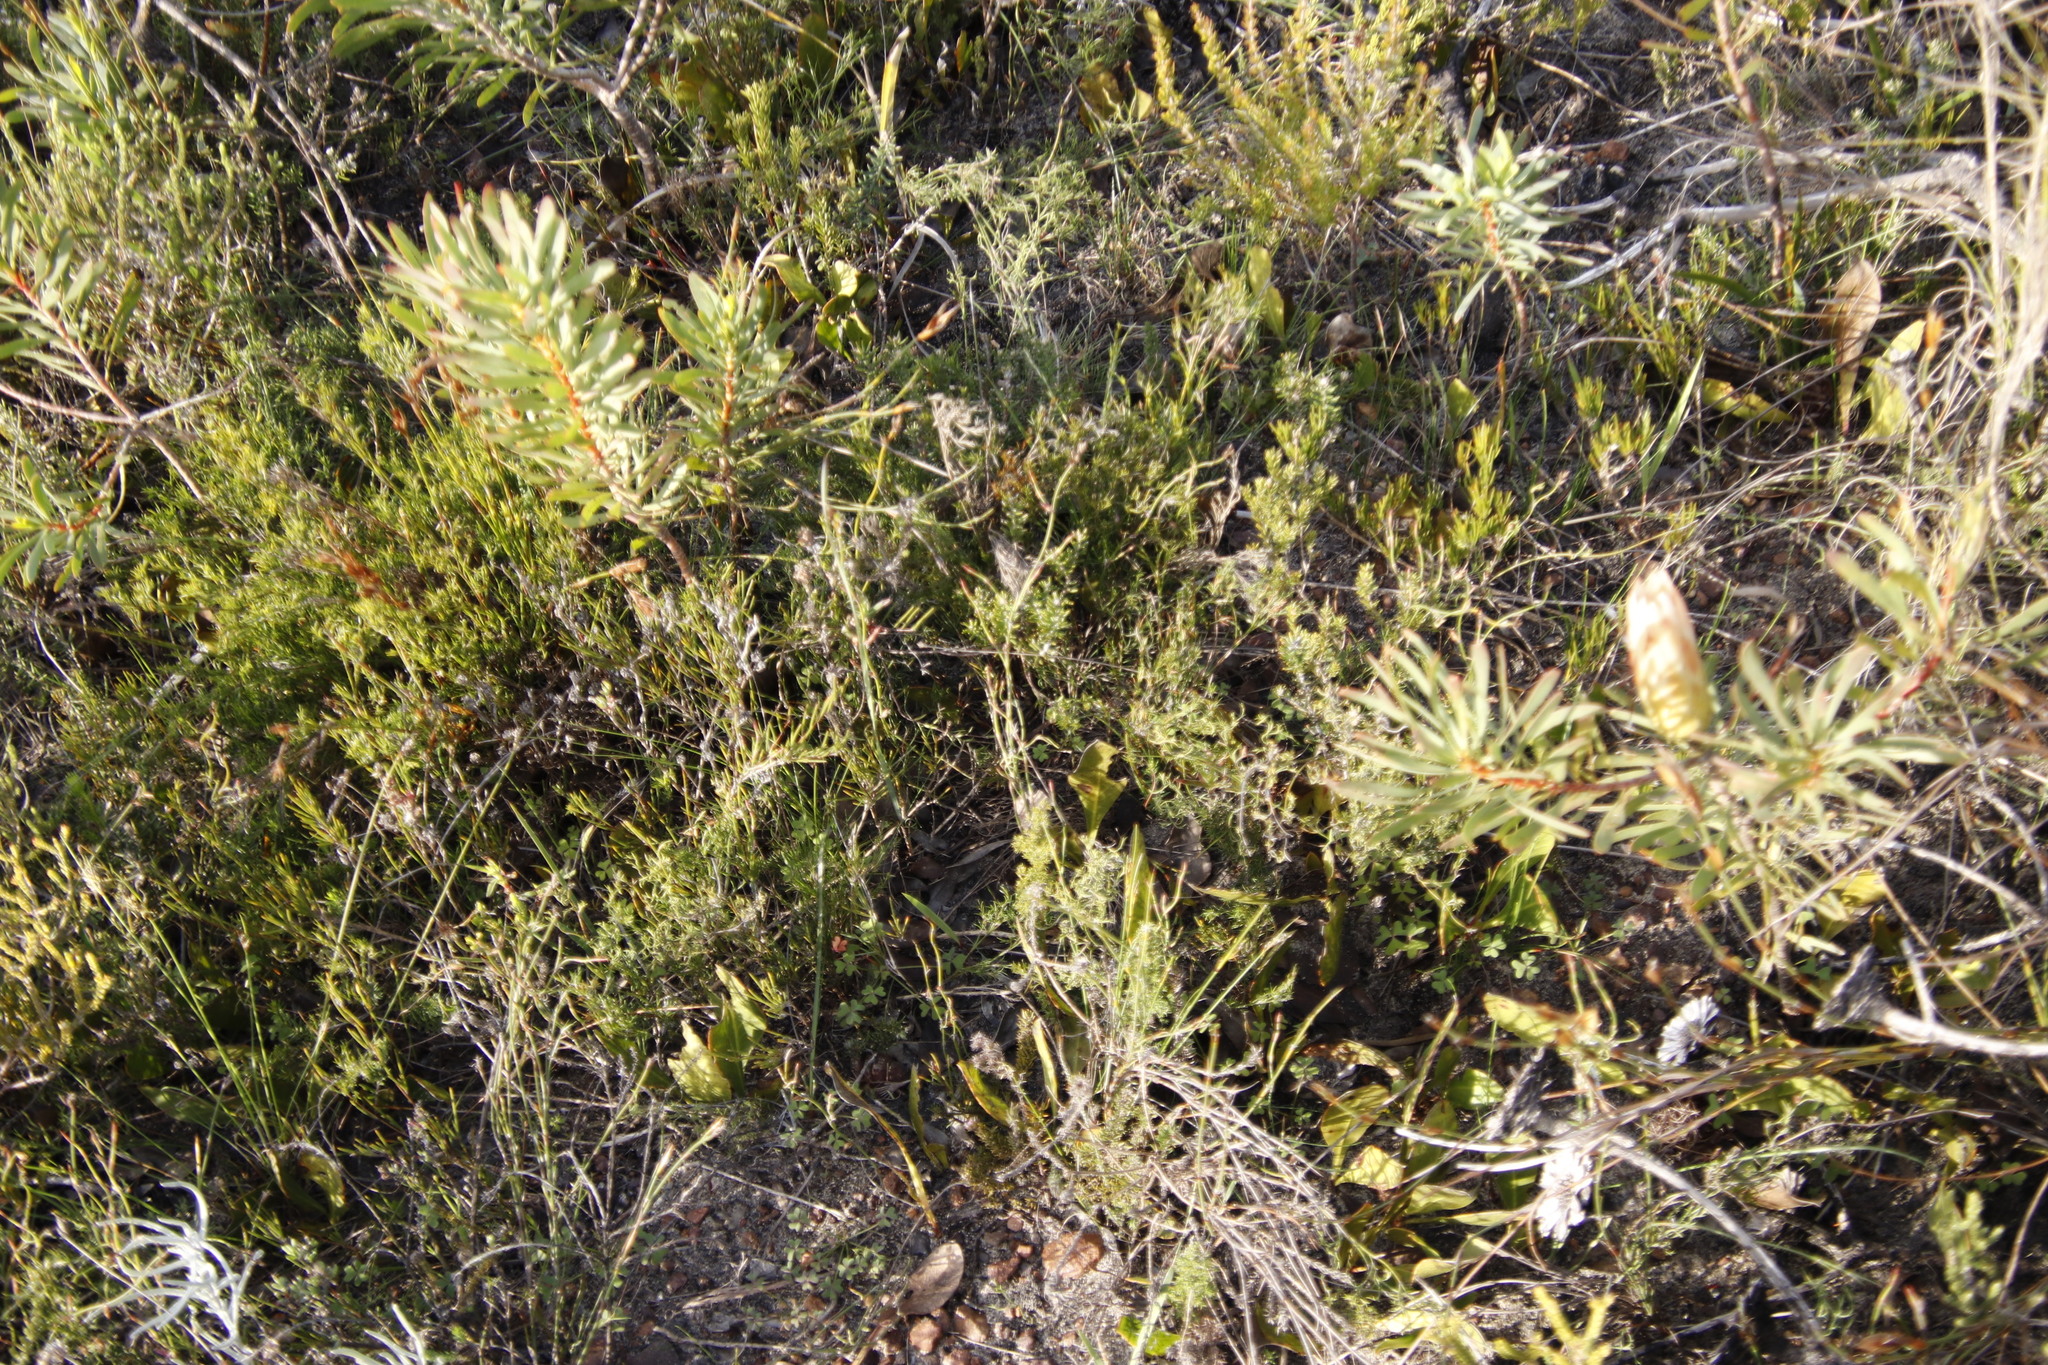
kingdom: Plantae
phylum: Tracheophyta
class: Magnoliopsida
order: Proteales
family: Proteaceae
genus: Protea
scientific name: Protea acaulos
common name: Common ground sugarbush
